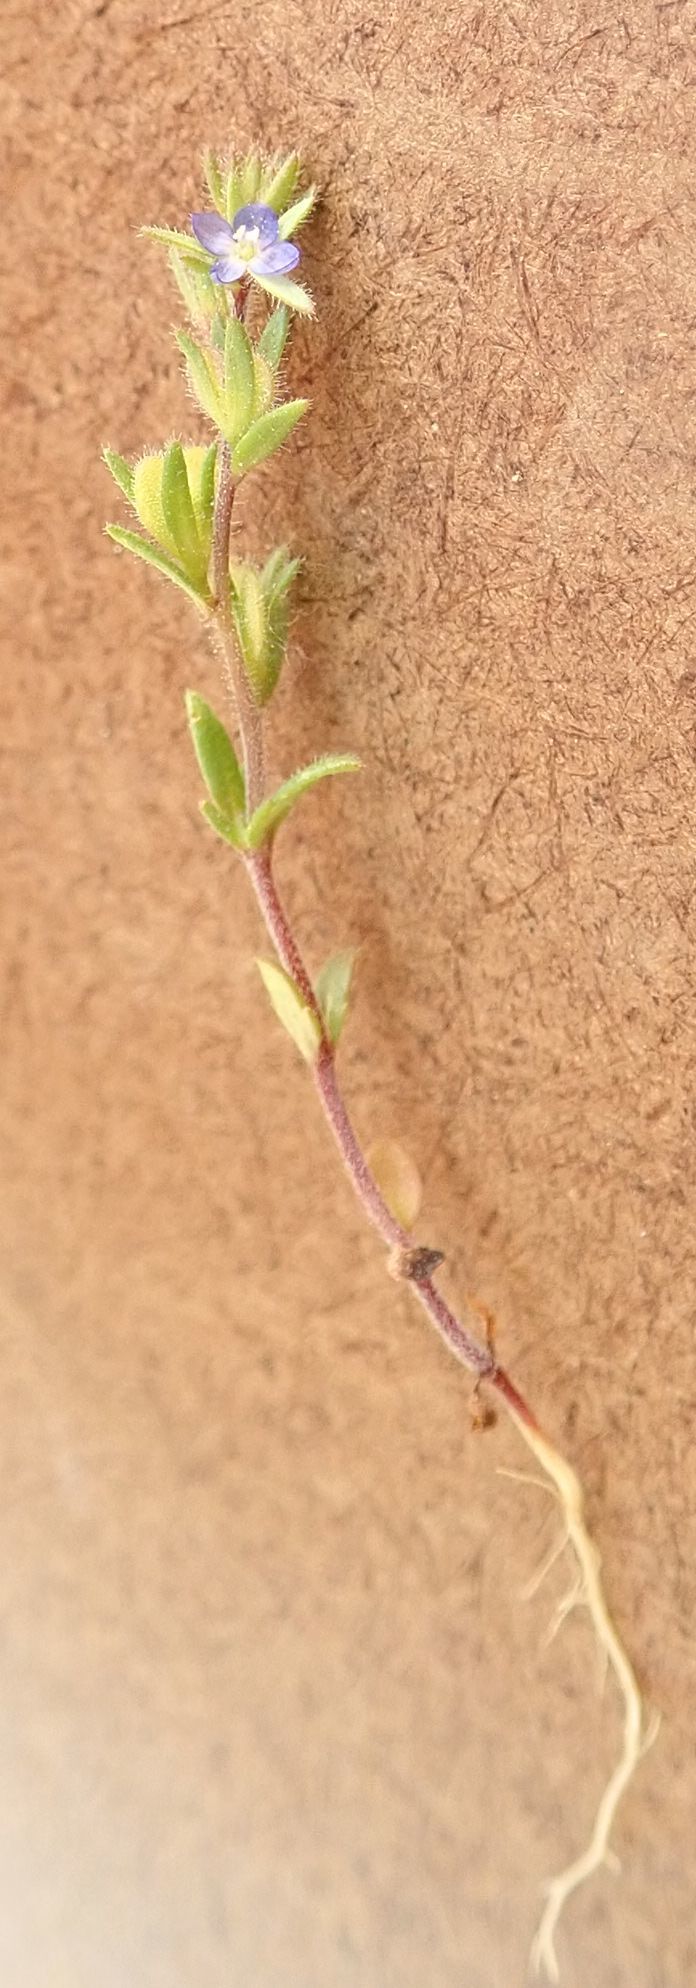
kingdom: Plantae
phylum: Tracheophyta
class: Magnoliopsida
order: Lamiales
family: Plantaginaceae
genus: Veronica
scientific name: Veronica verna
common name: Spring speedwell
